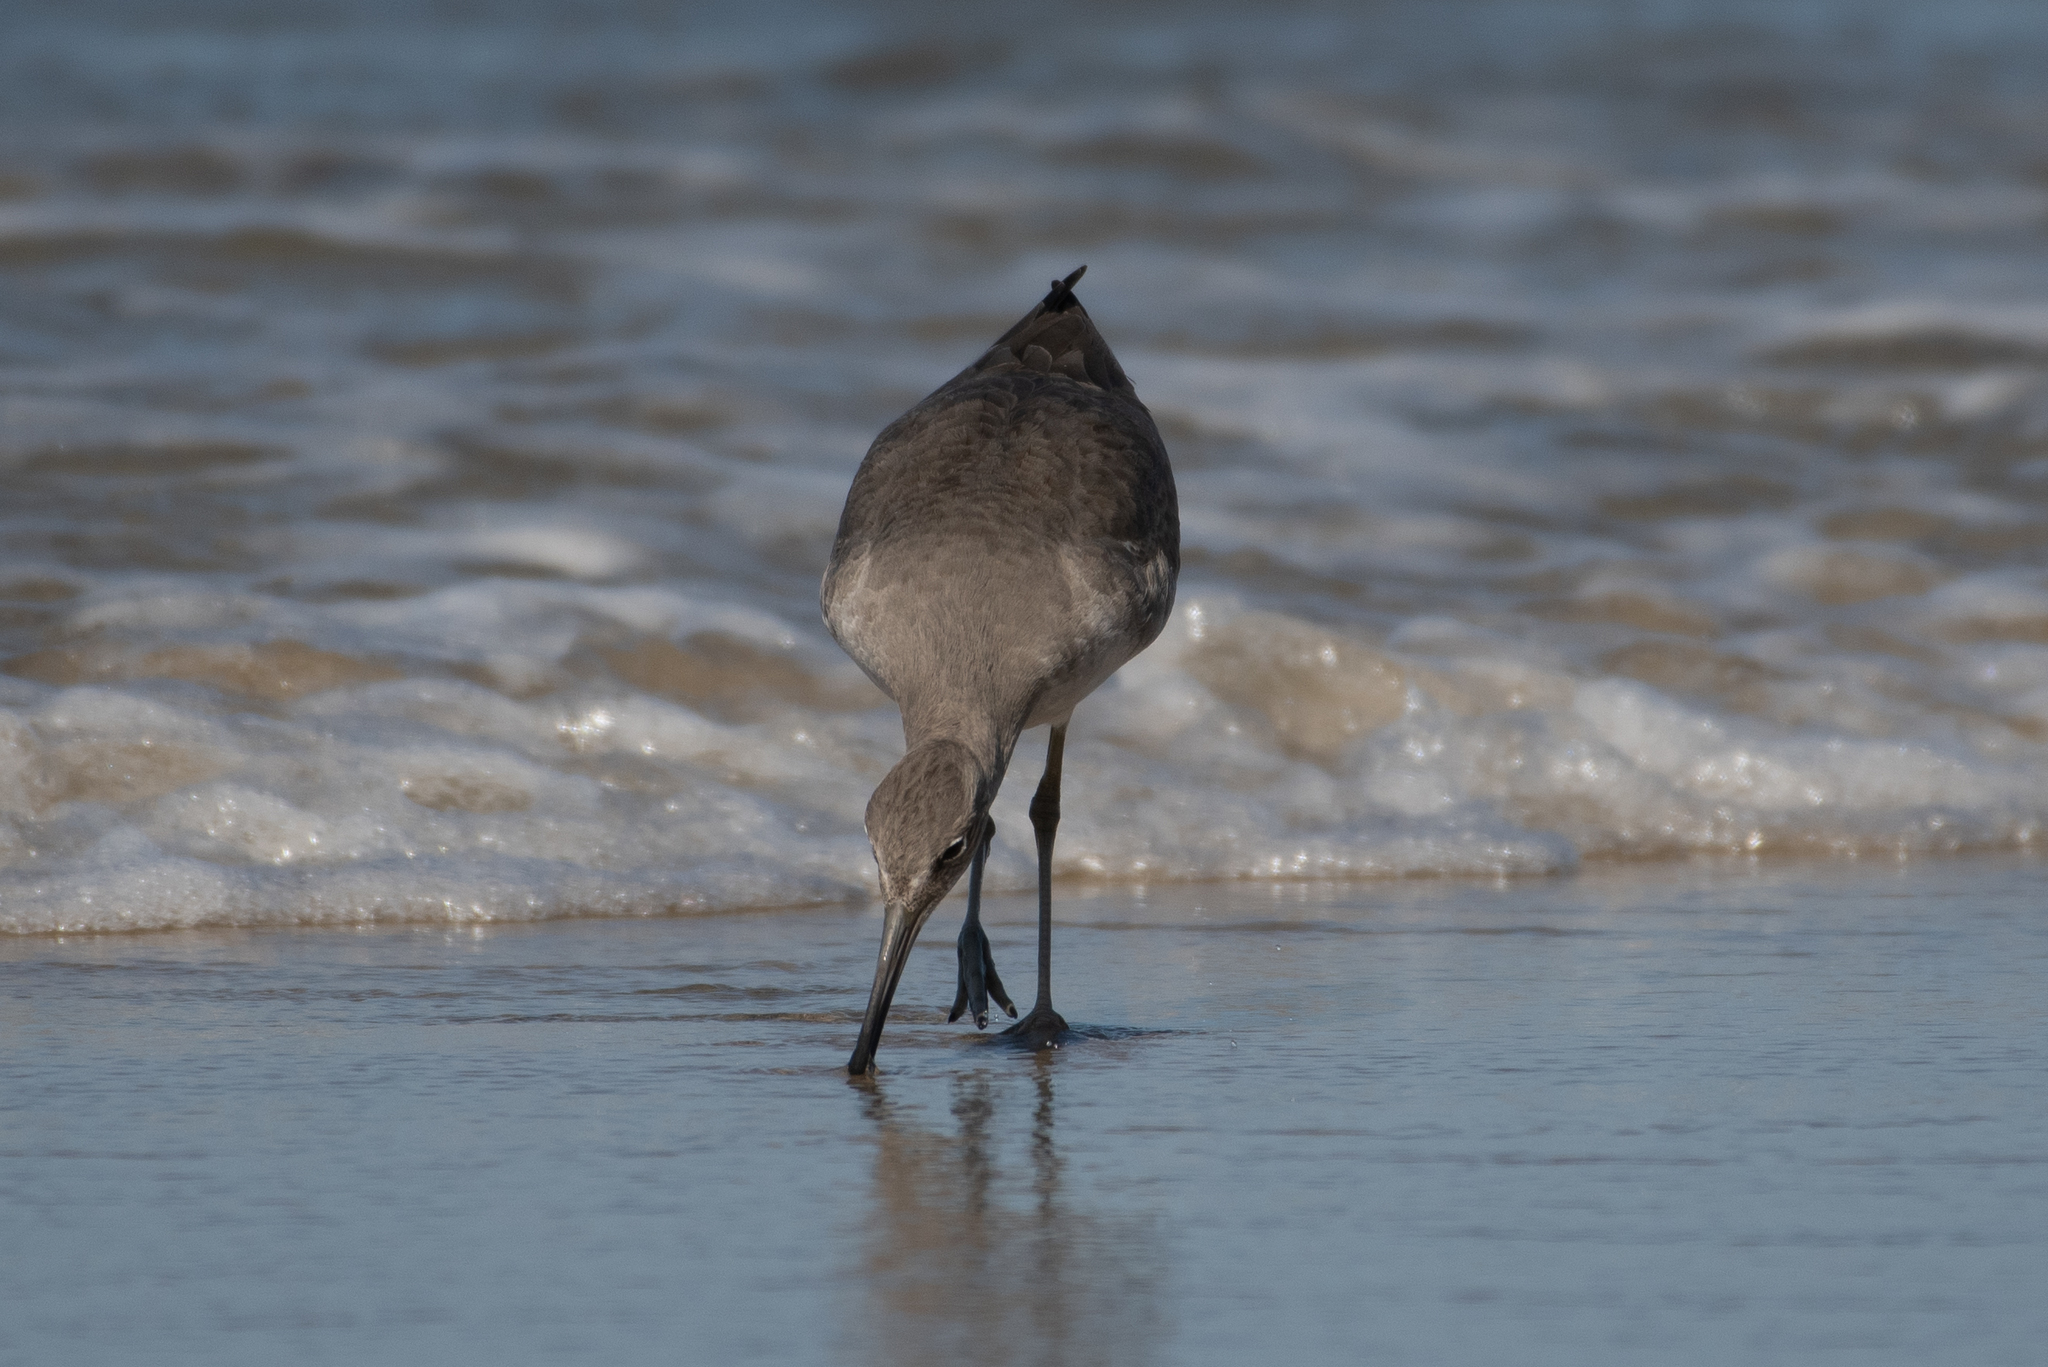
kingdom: Animalia
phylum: Chordata
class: Aves
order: Charadriiformes
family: Scolopacidae
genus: Tringa
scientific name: Tringa semipalmata
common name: Willet
